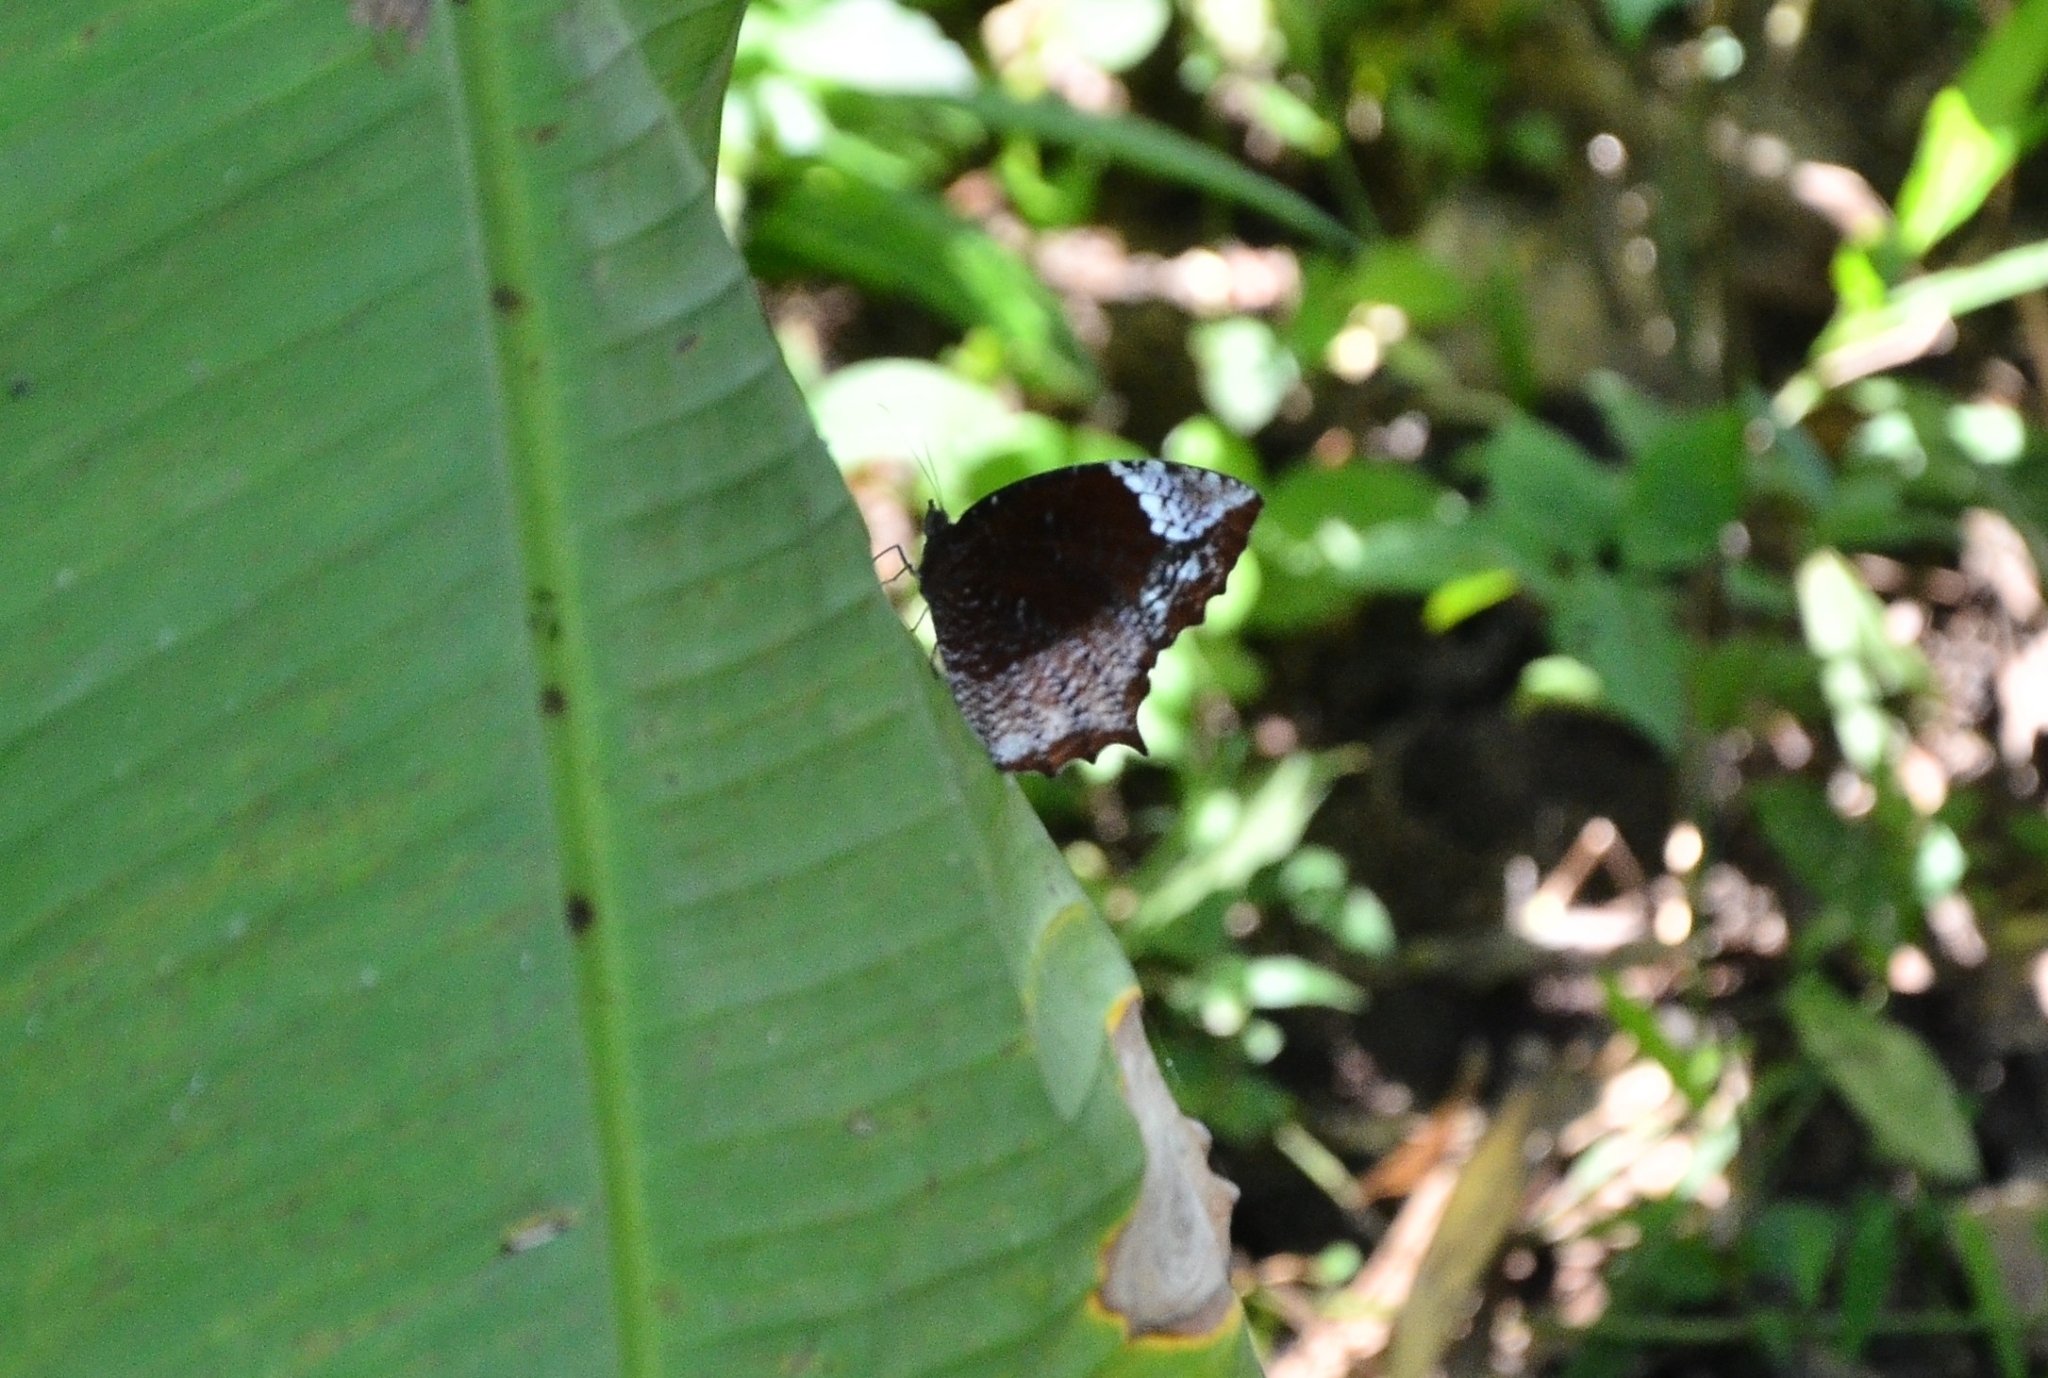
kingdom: Animalia
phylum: Arthropoda
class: Insecta
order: Lepidoptera
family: Nymphalidae
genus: Elymnias
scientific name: Elymnias caudata
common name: Tailed palmfly
